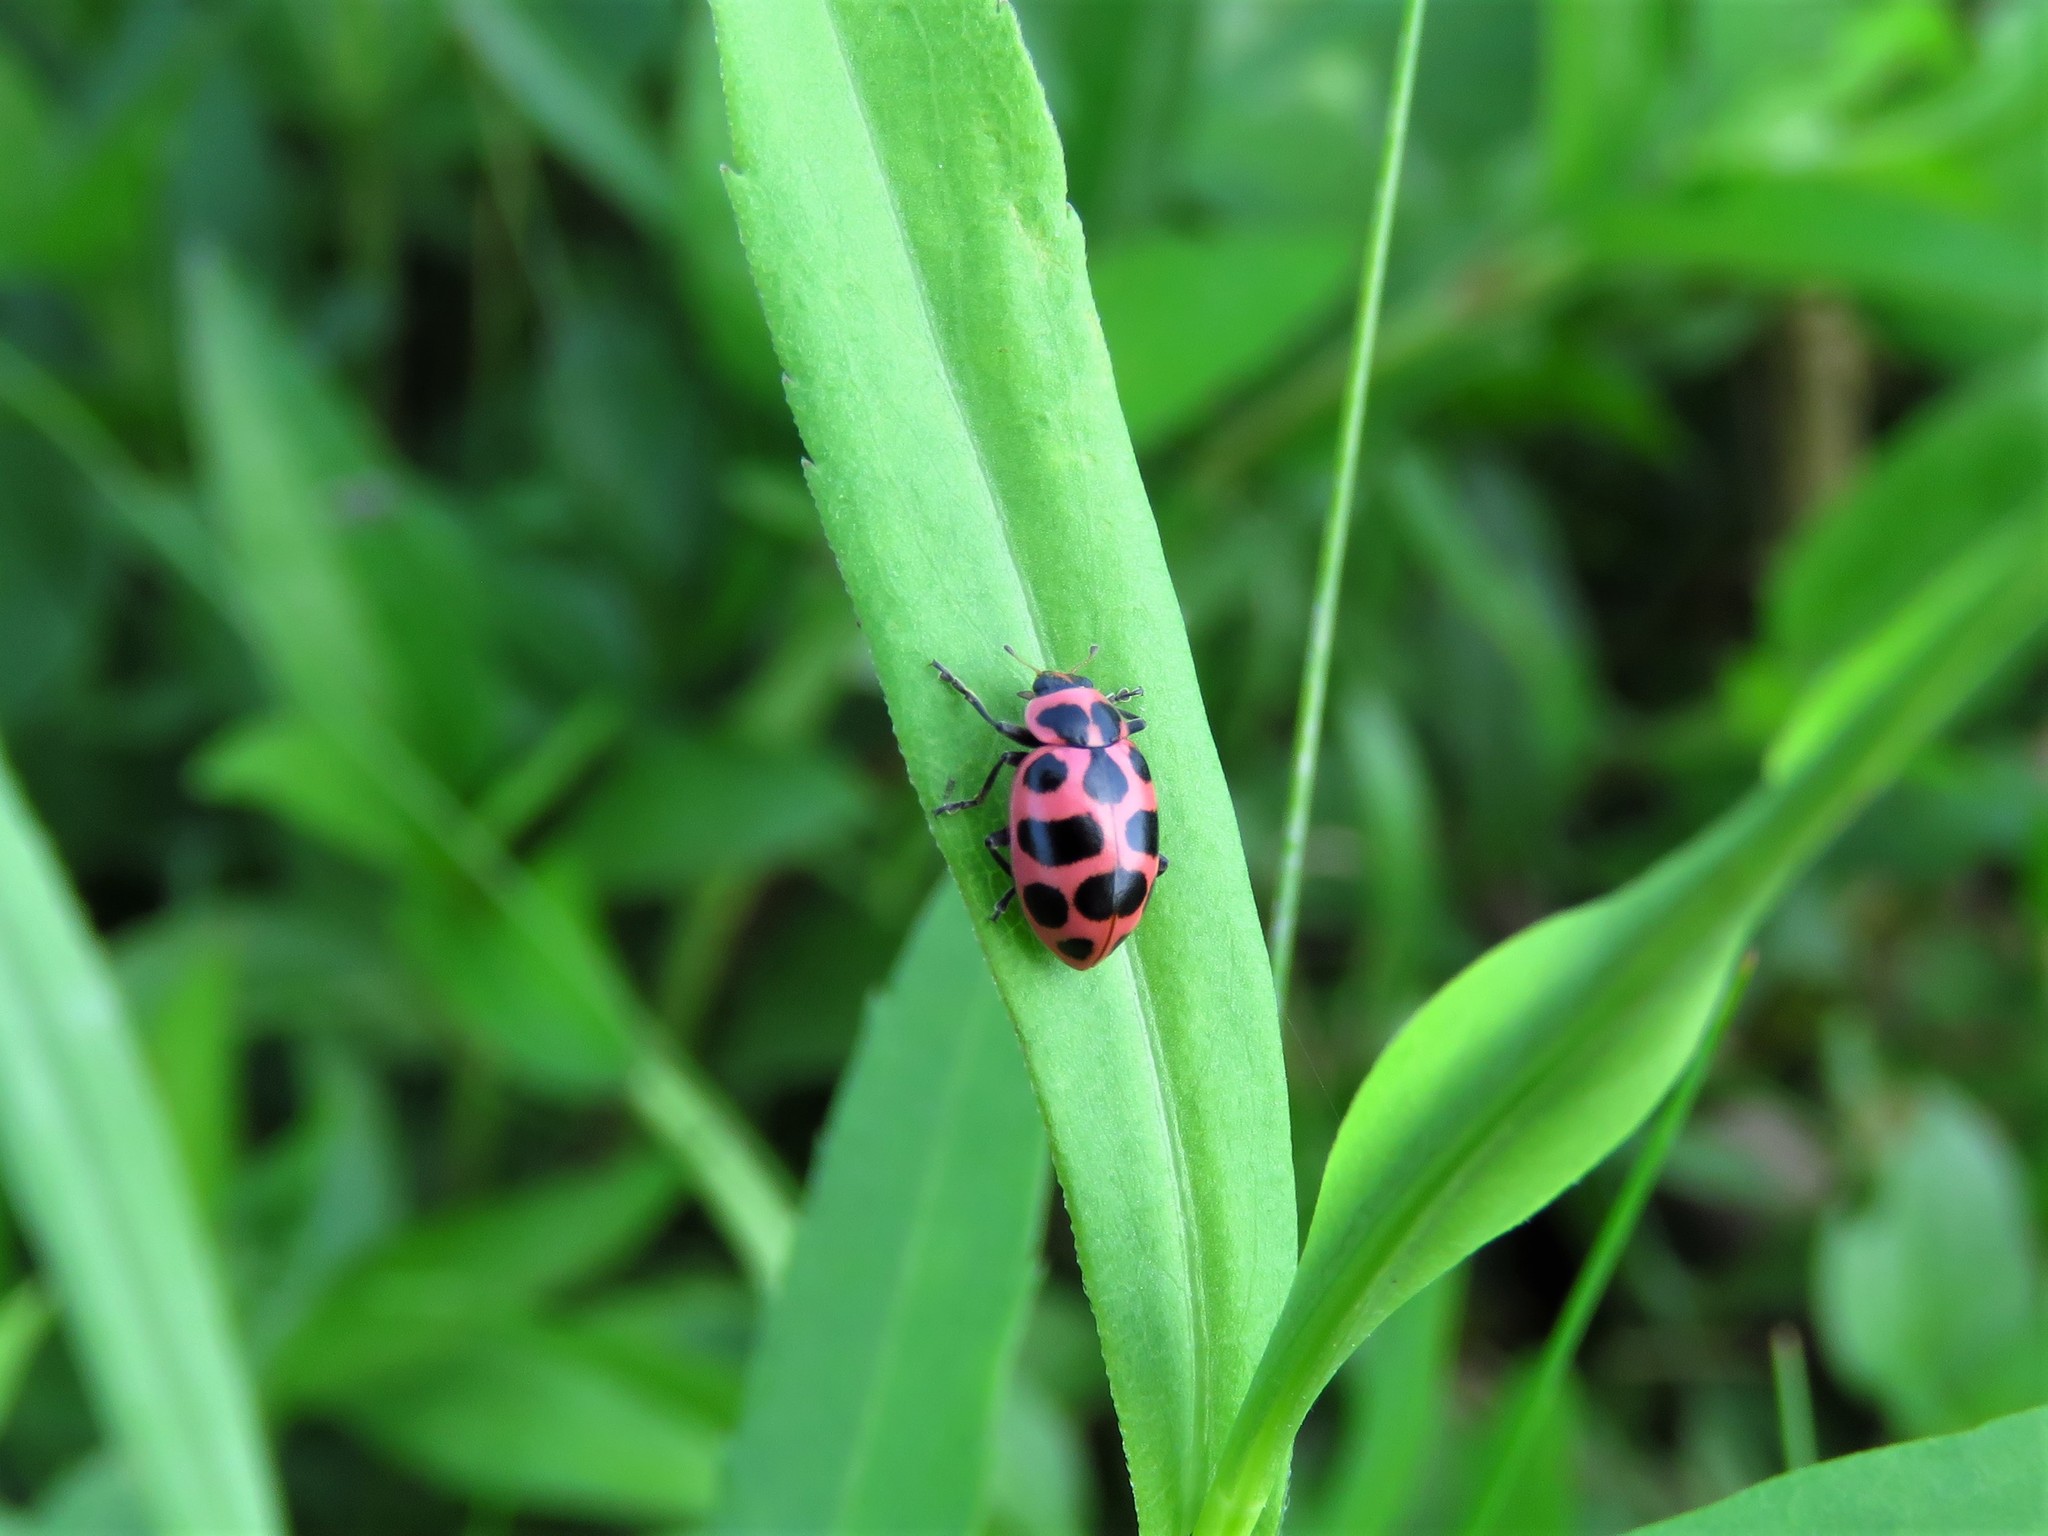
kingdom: Animalia
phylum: Arthropoda
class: Insecta
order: Coleoptera
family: Coccinellidae
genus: Coleomegilla
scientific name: Coleomegilla maculata
